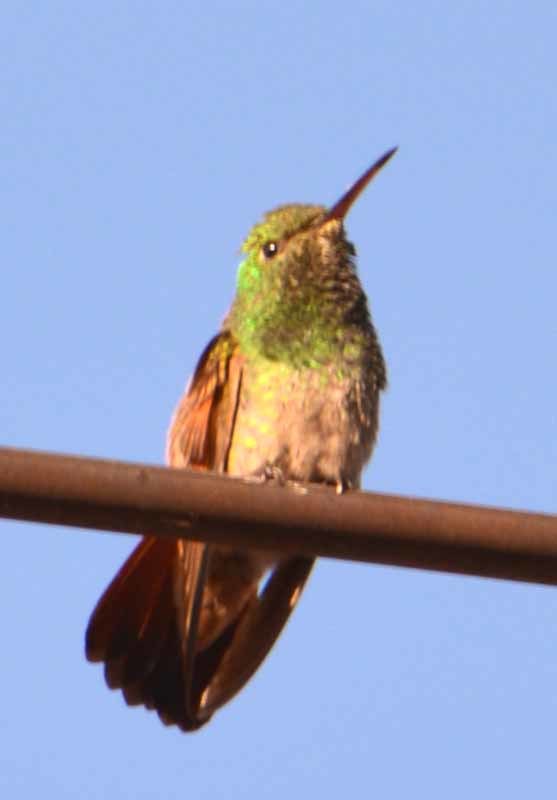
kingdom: Animalia
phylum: Chordata
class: Aves
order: Apodiformes
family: Trochilidae
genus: Saucerottia
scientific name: Saucerottia beryllina
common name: Berylline hummingbird
